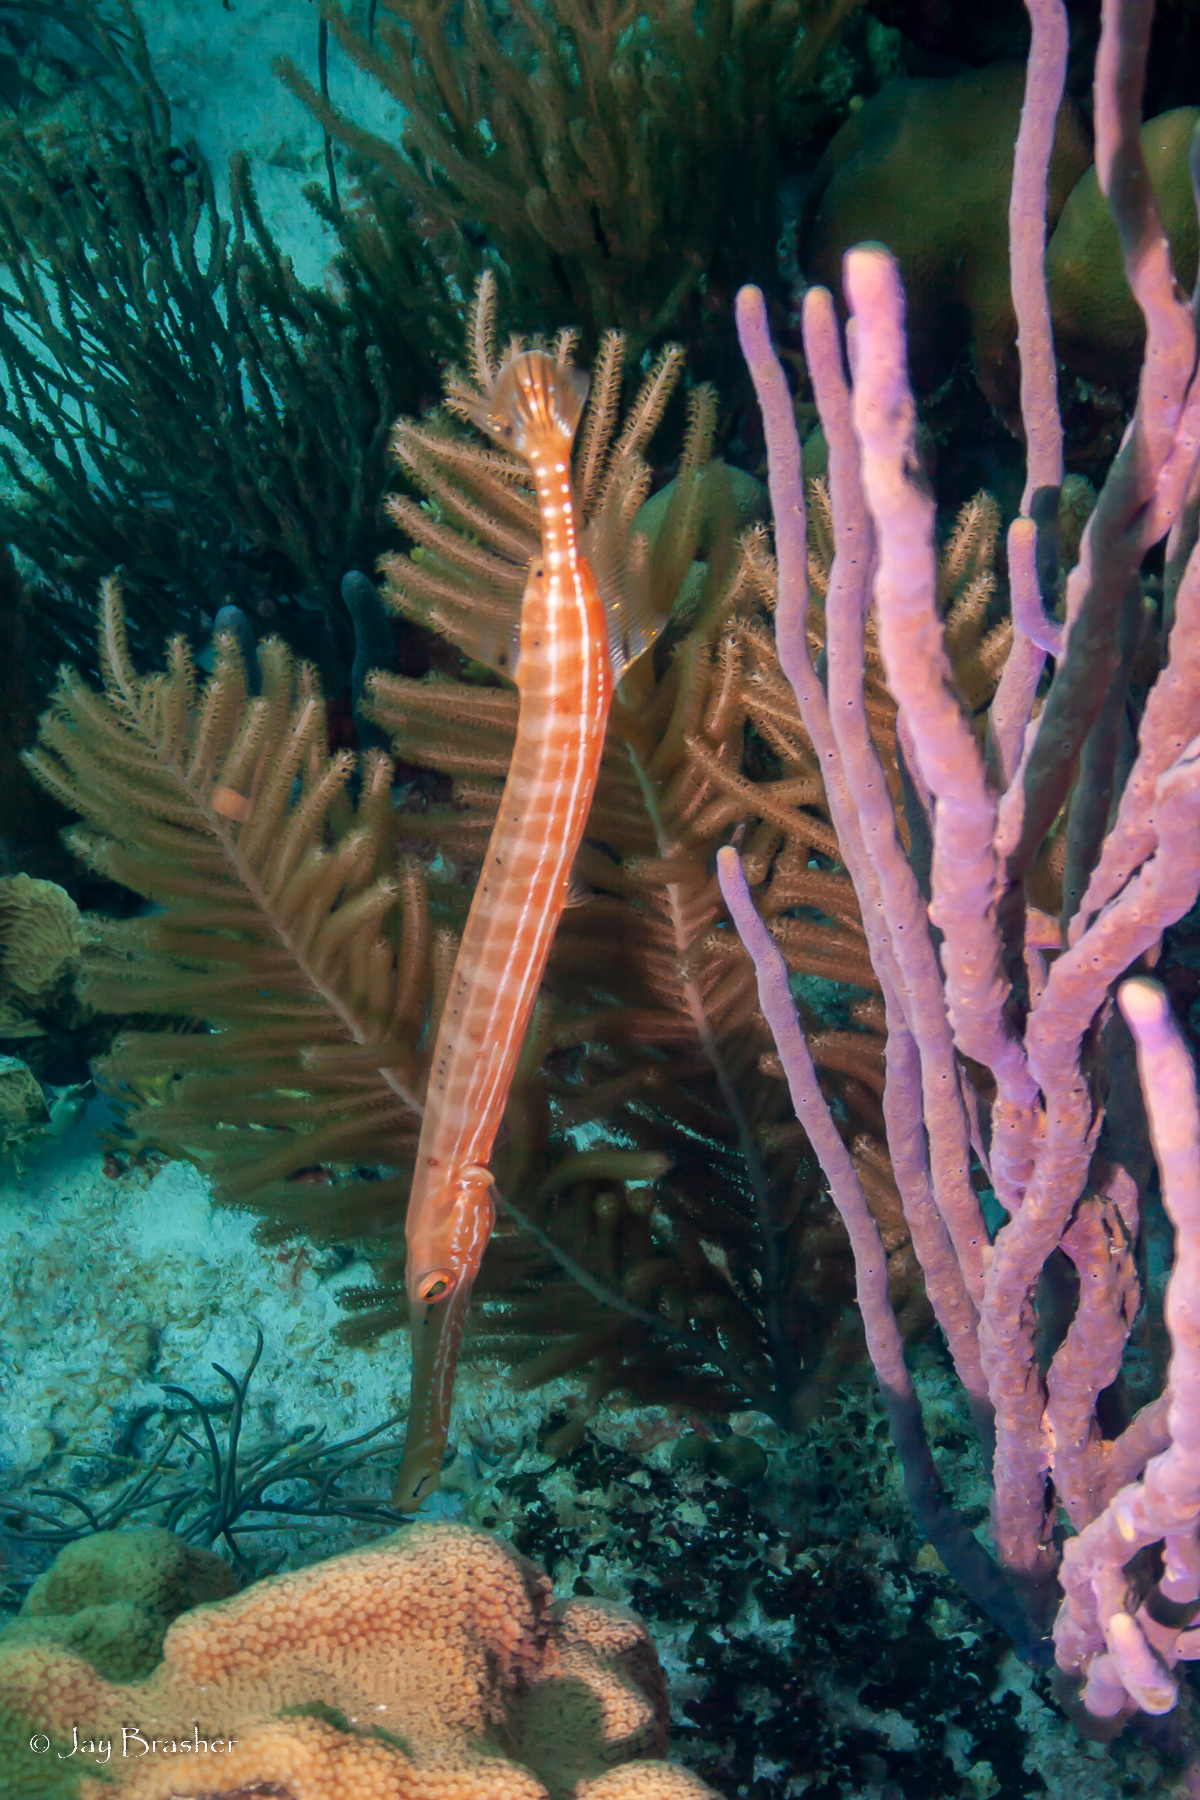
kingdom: Animalia
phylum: Porifera
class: Demospongiae
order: Verongiida
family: Aplysinidae
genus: Aplysina
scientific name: Aplysina cauliformis
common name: Branching candle sponge
